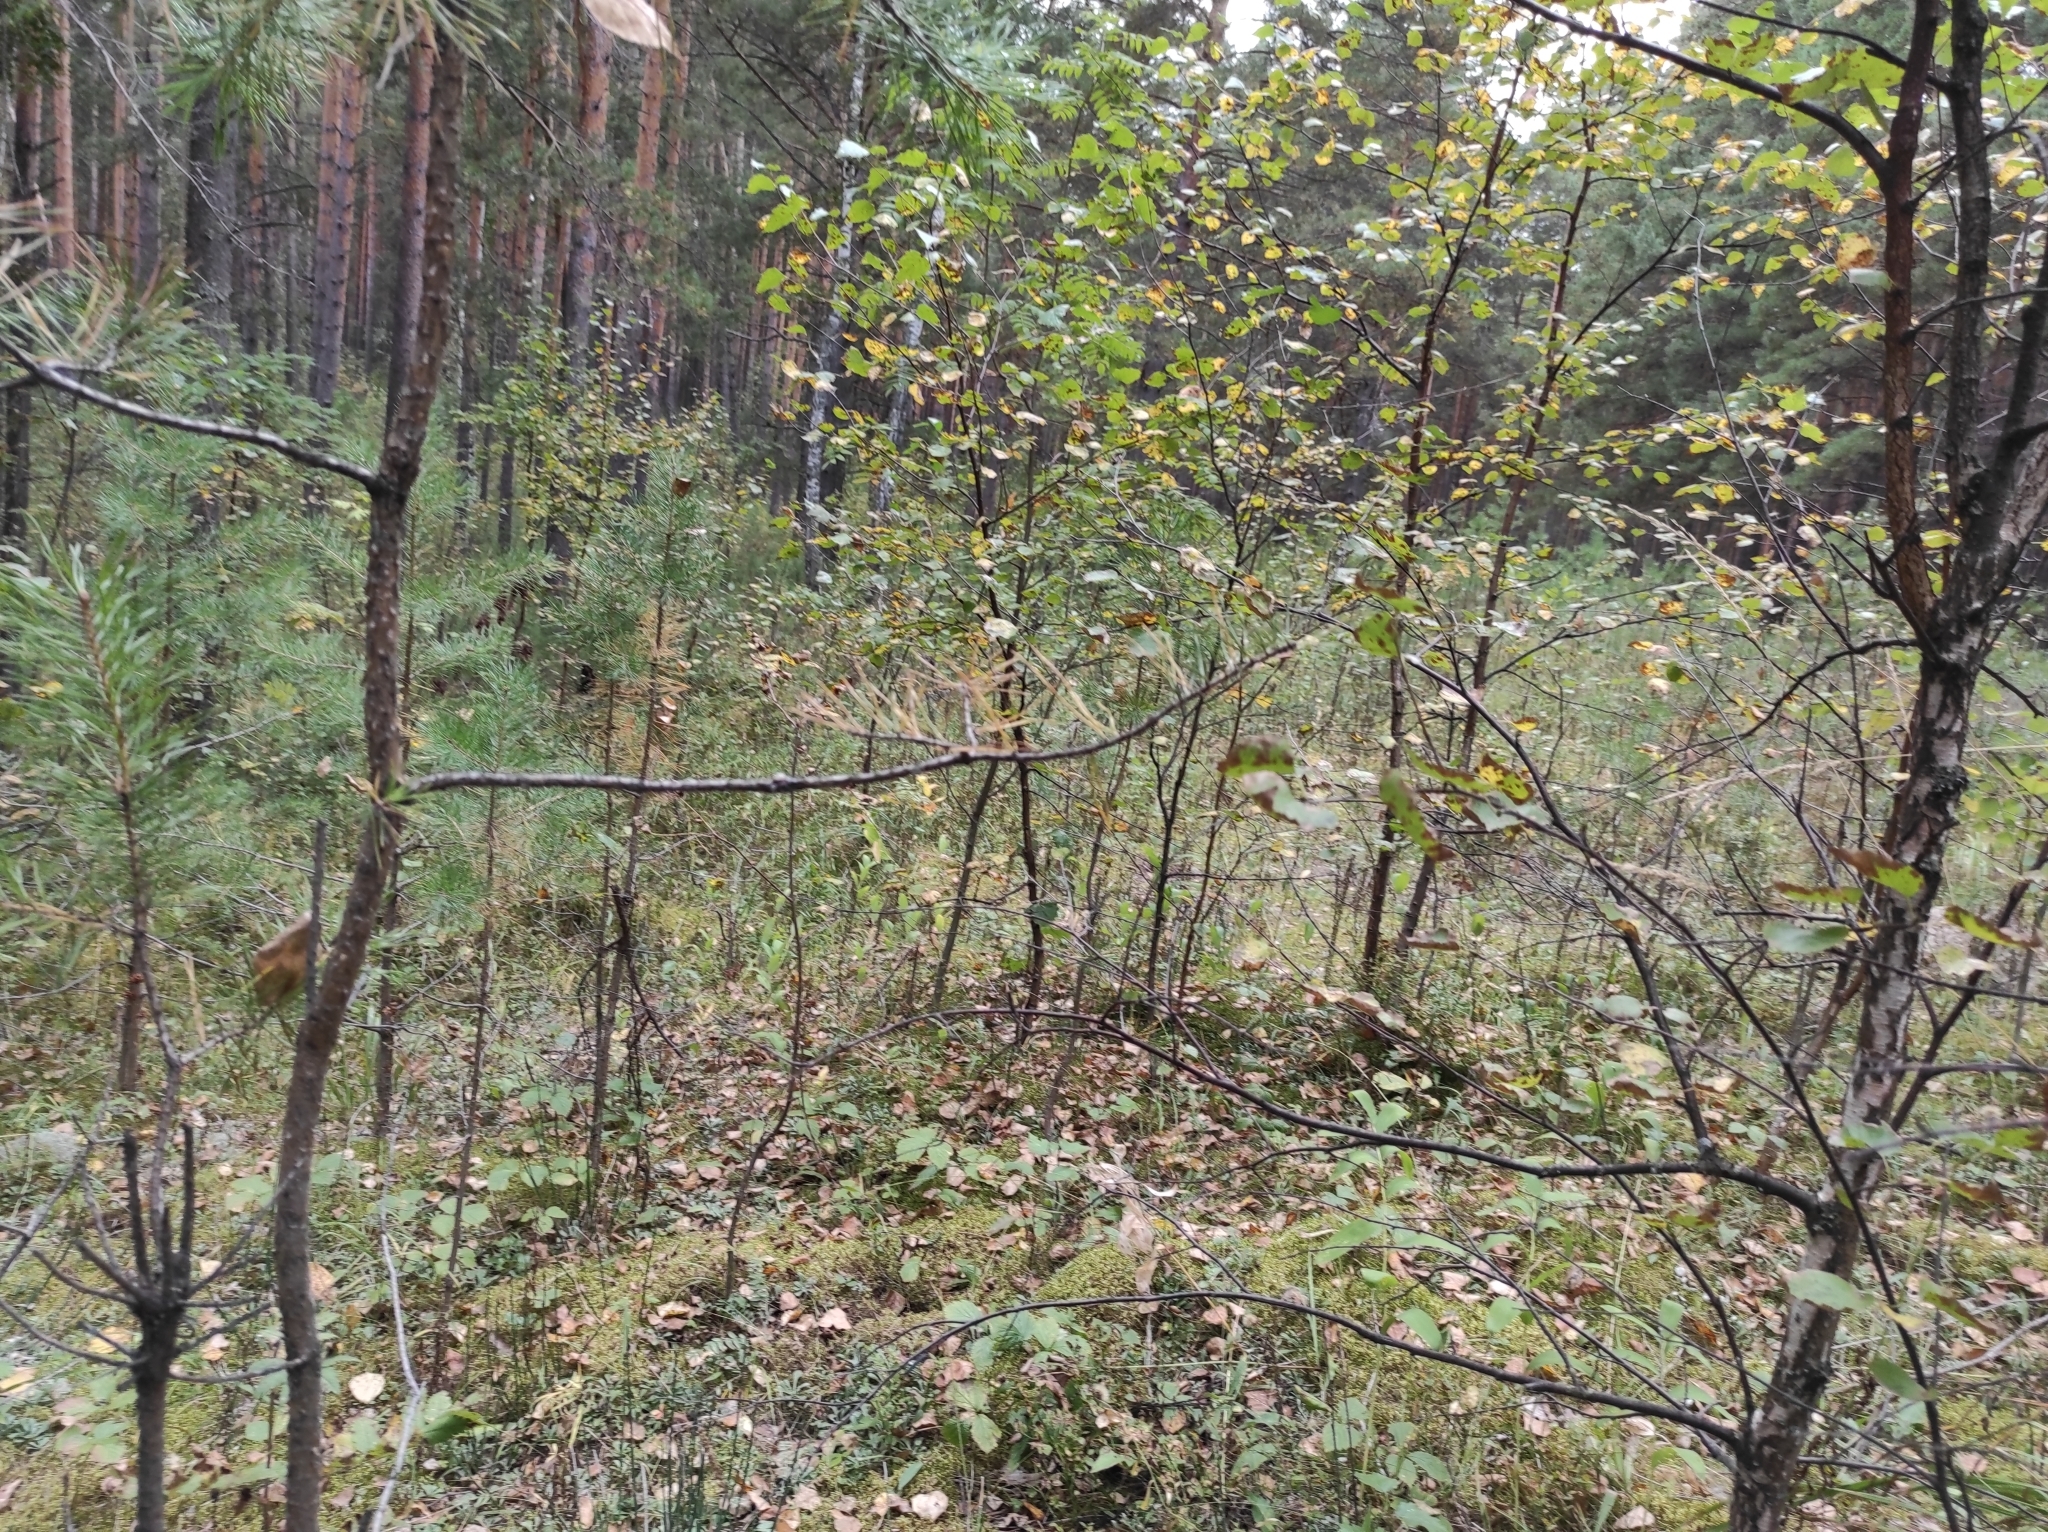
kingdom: Plantae
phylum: Tracheophyta
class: Pinopsida
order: Pinales
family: Pinaceae
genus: Pinus
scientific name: Pinus sylvestris
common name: Scots pine
